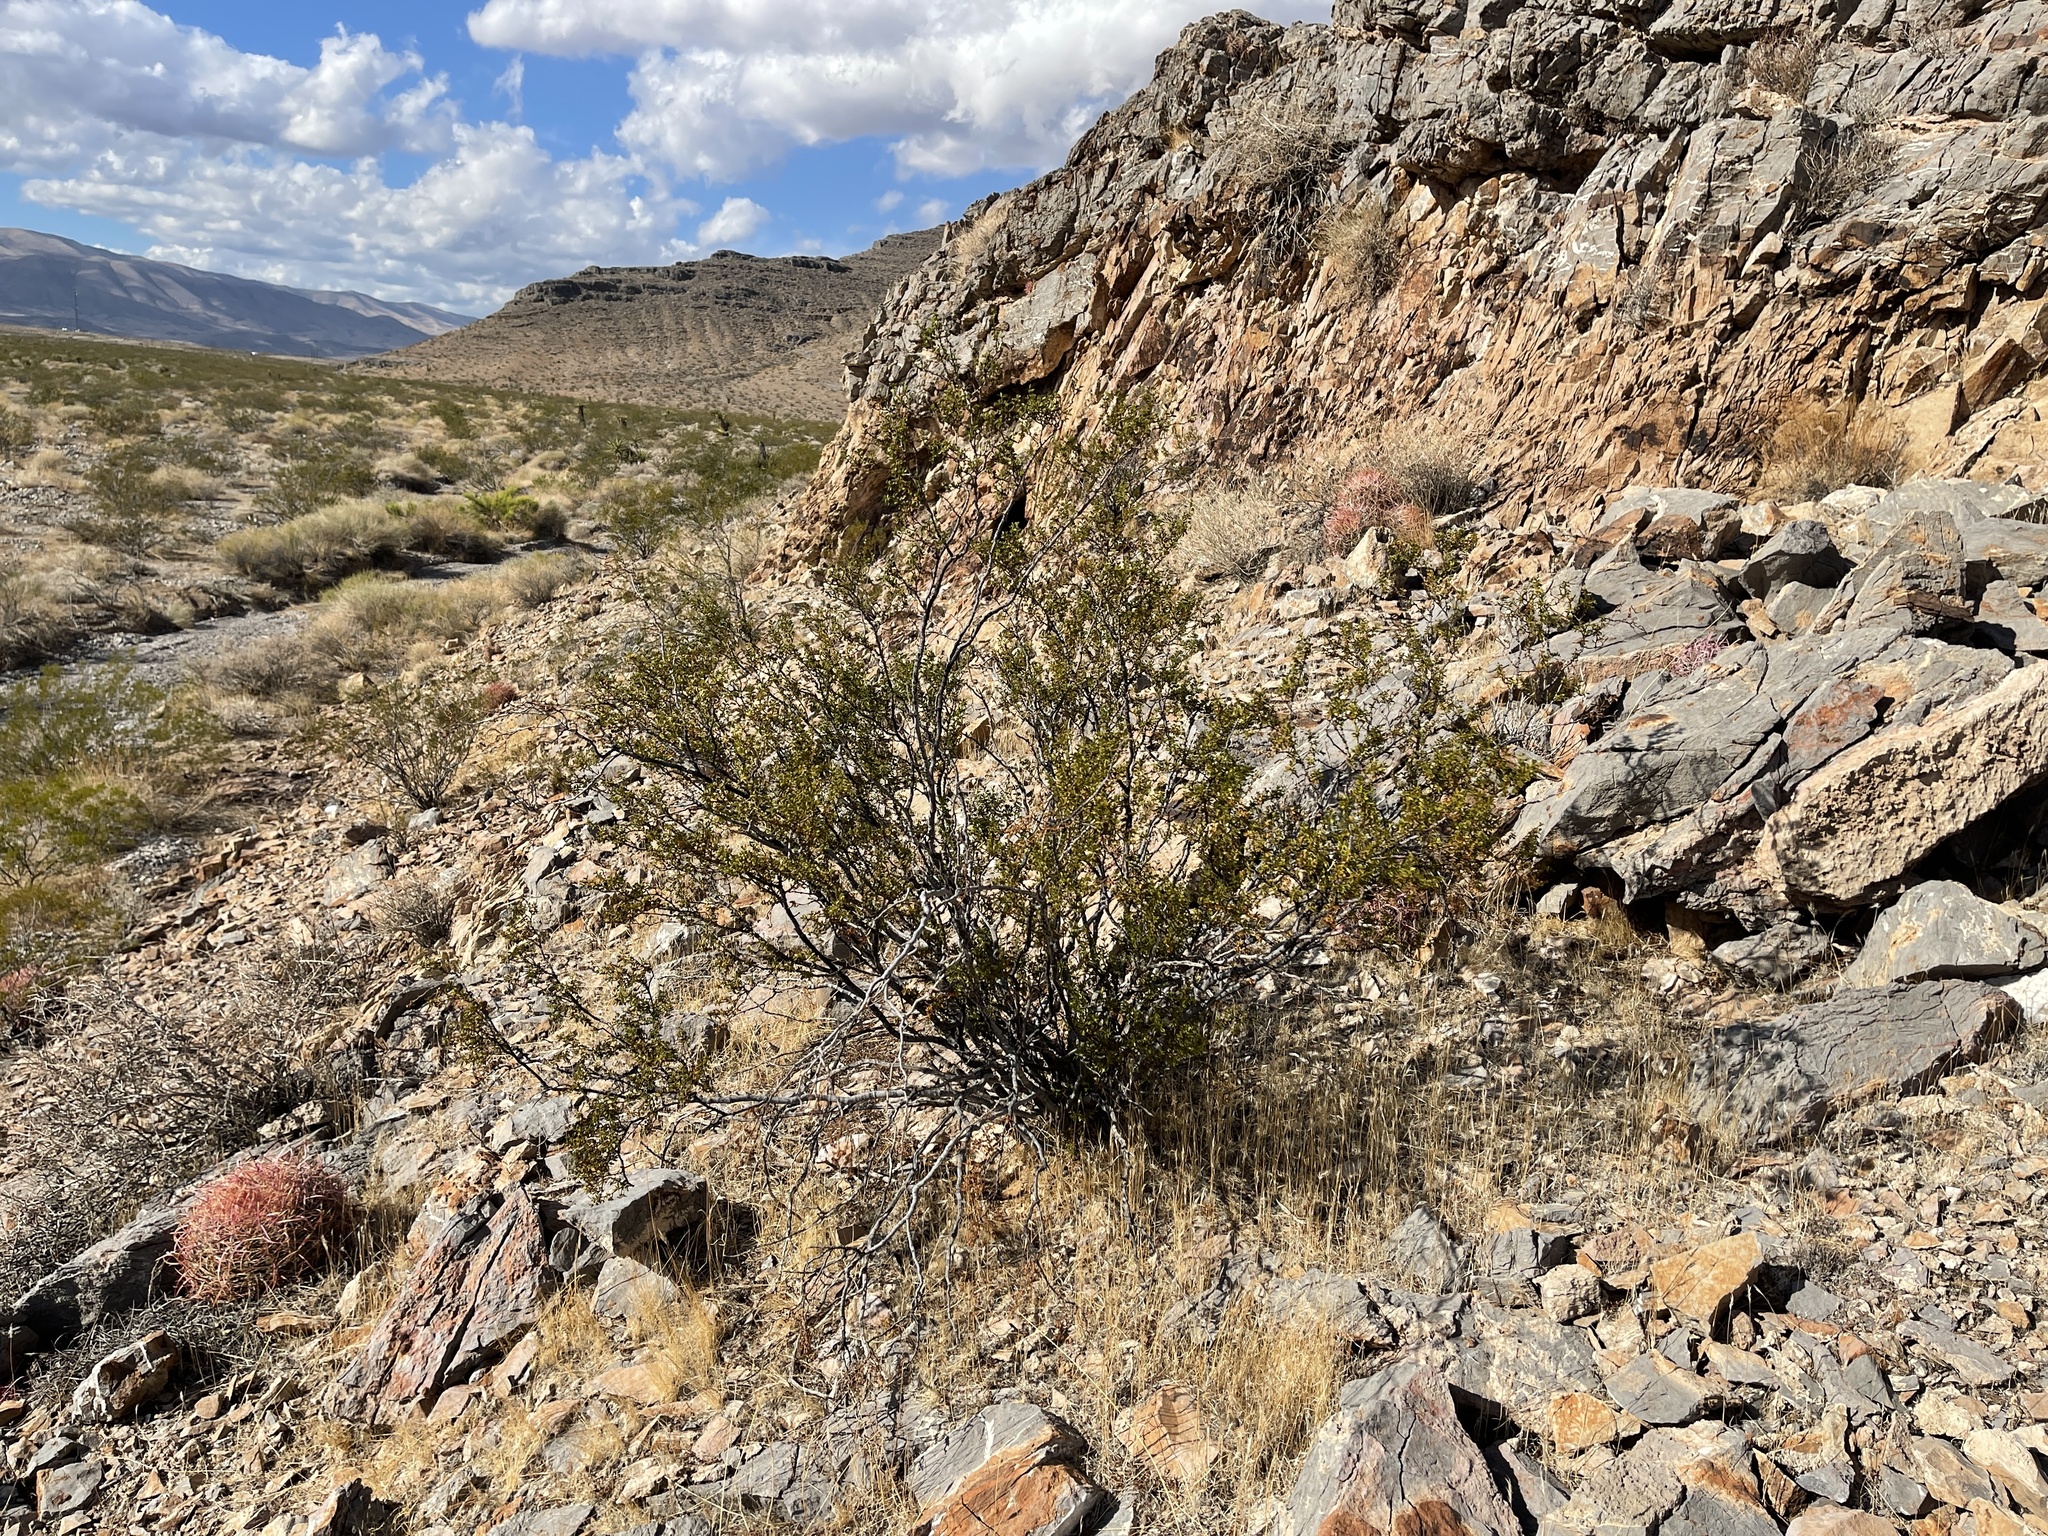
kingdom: Plantae
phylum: Tracheophyta
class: Magnoliopsida
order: Zygophyllales
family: Zygophyllaceae
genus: Larrea
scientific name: Larrea tridentata
